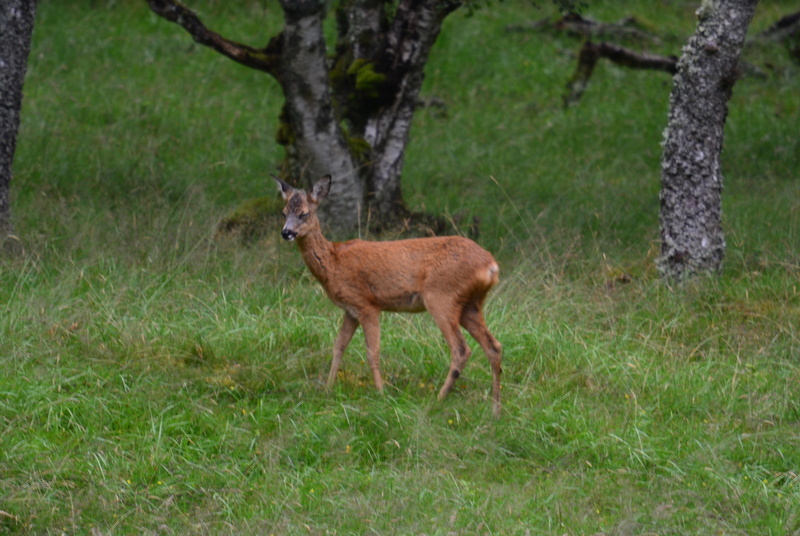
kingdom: Animalia
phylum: Chordata
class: Mammalia
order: Artiodactyla
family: Cervidae
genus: Capreolus
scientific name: Capreolus capreolus
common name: Western roe deer
